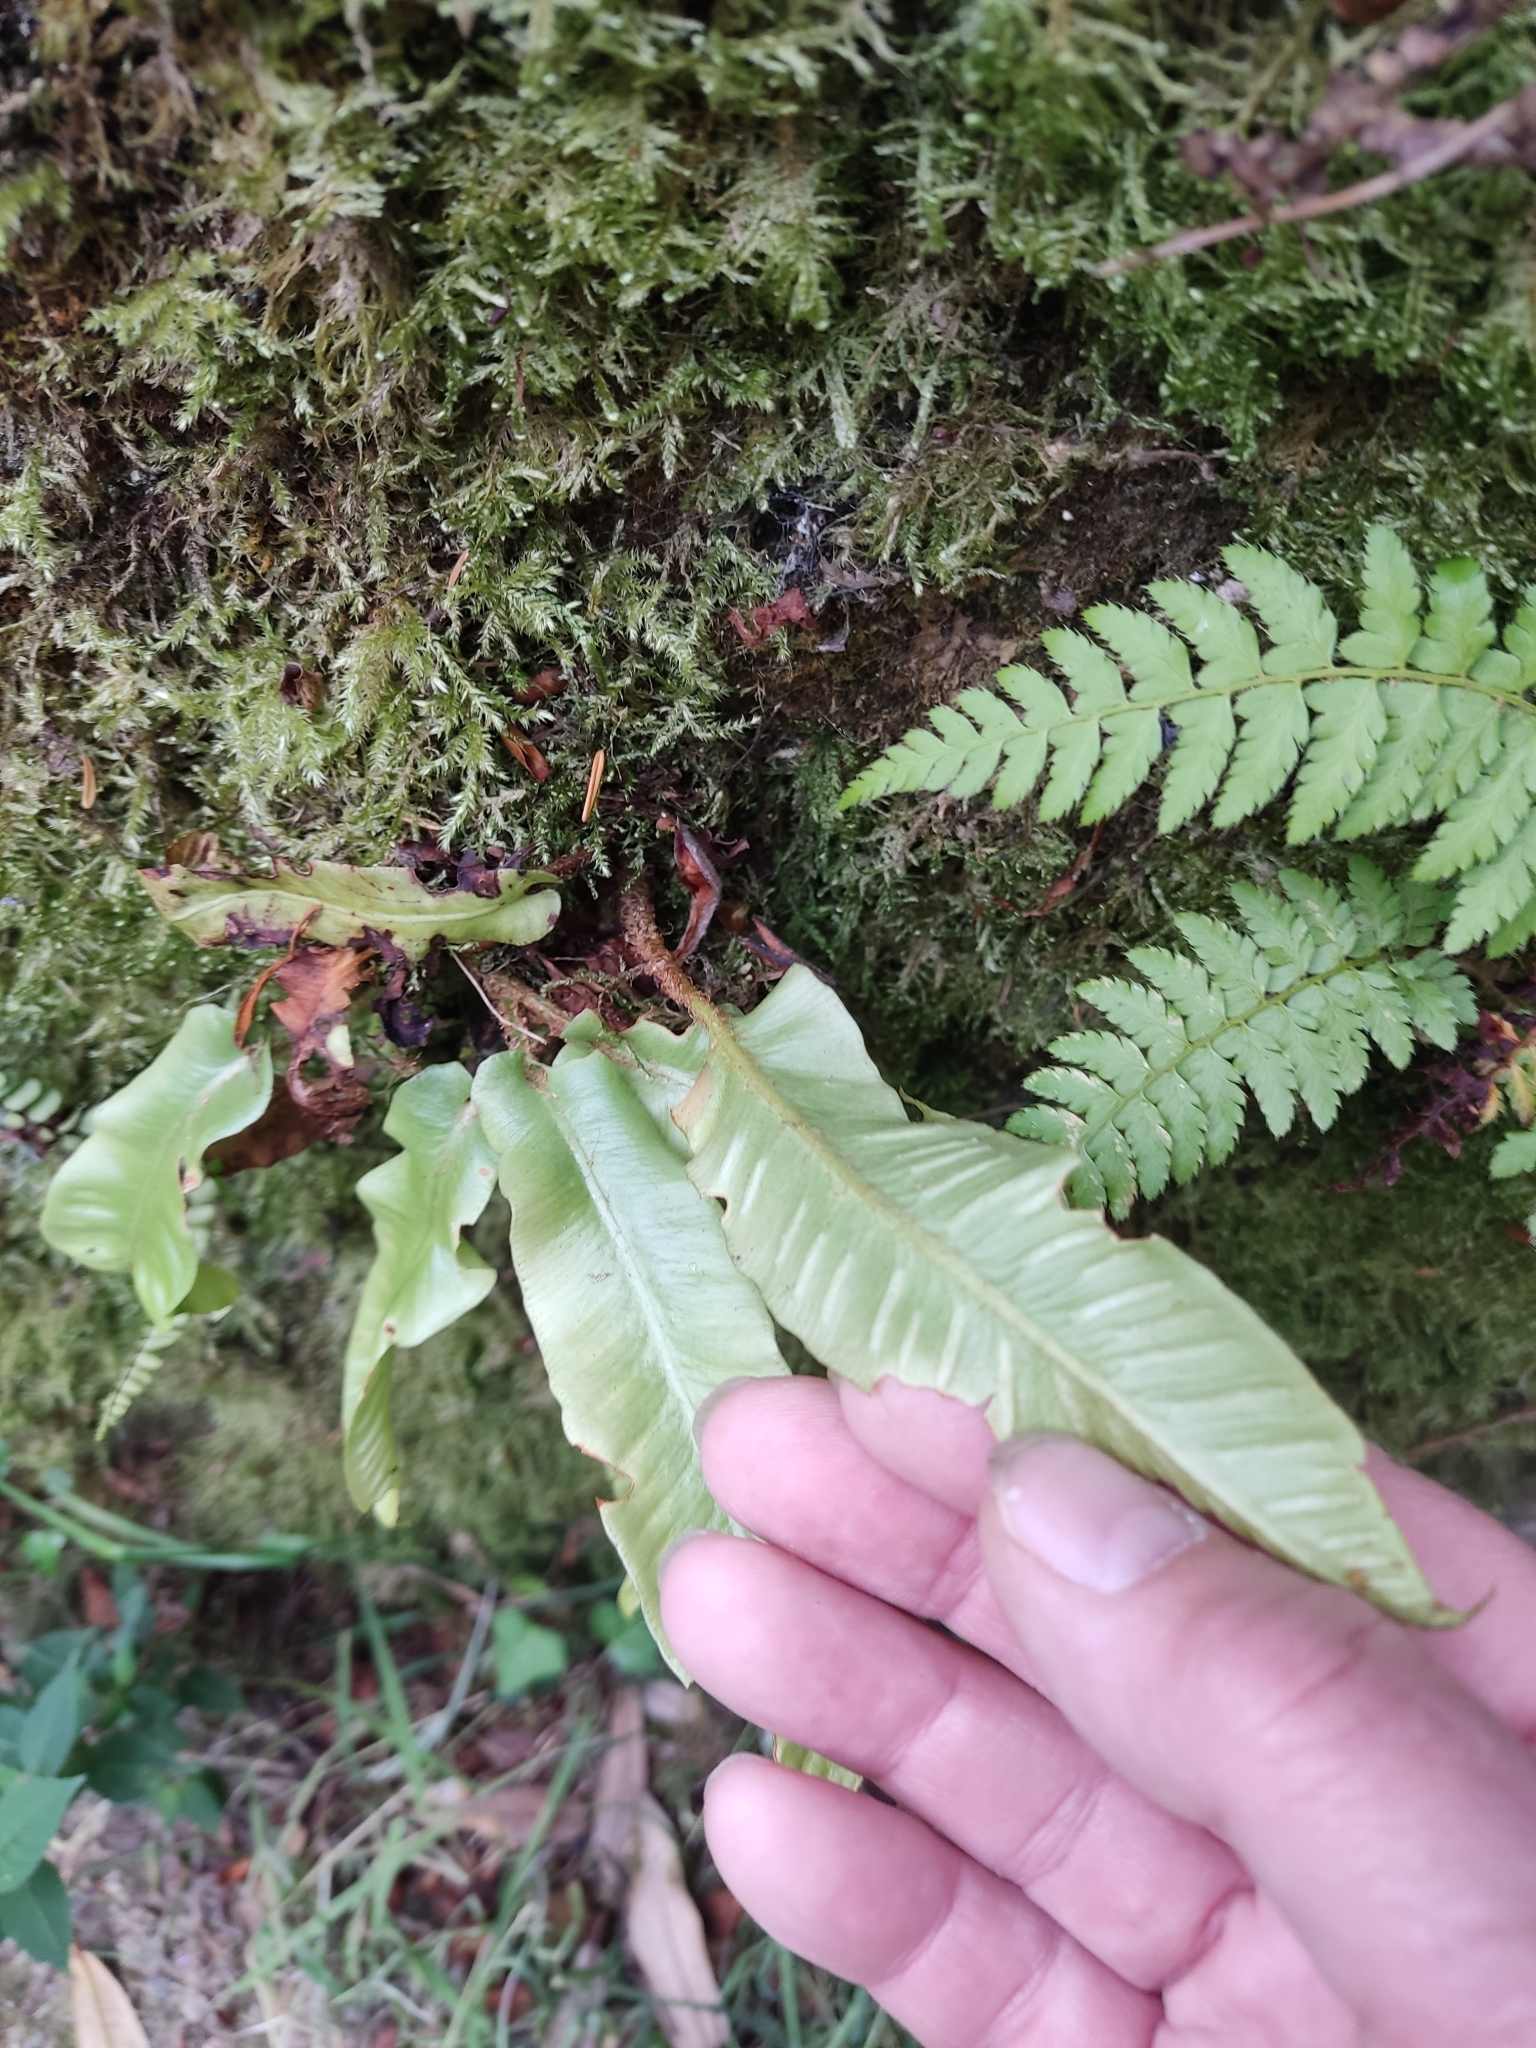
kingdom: Plantae
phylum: Tracheophyta
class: Polypodiopsida
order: Polypodiales
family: Aspleniaceae
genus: Asplenium
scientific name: Asplenium scolopendrium
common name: Hart's-tongue fern
